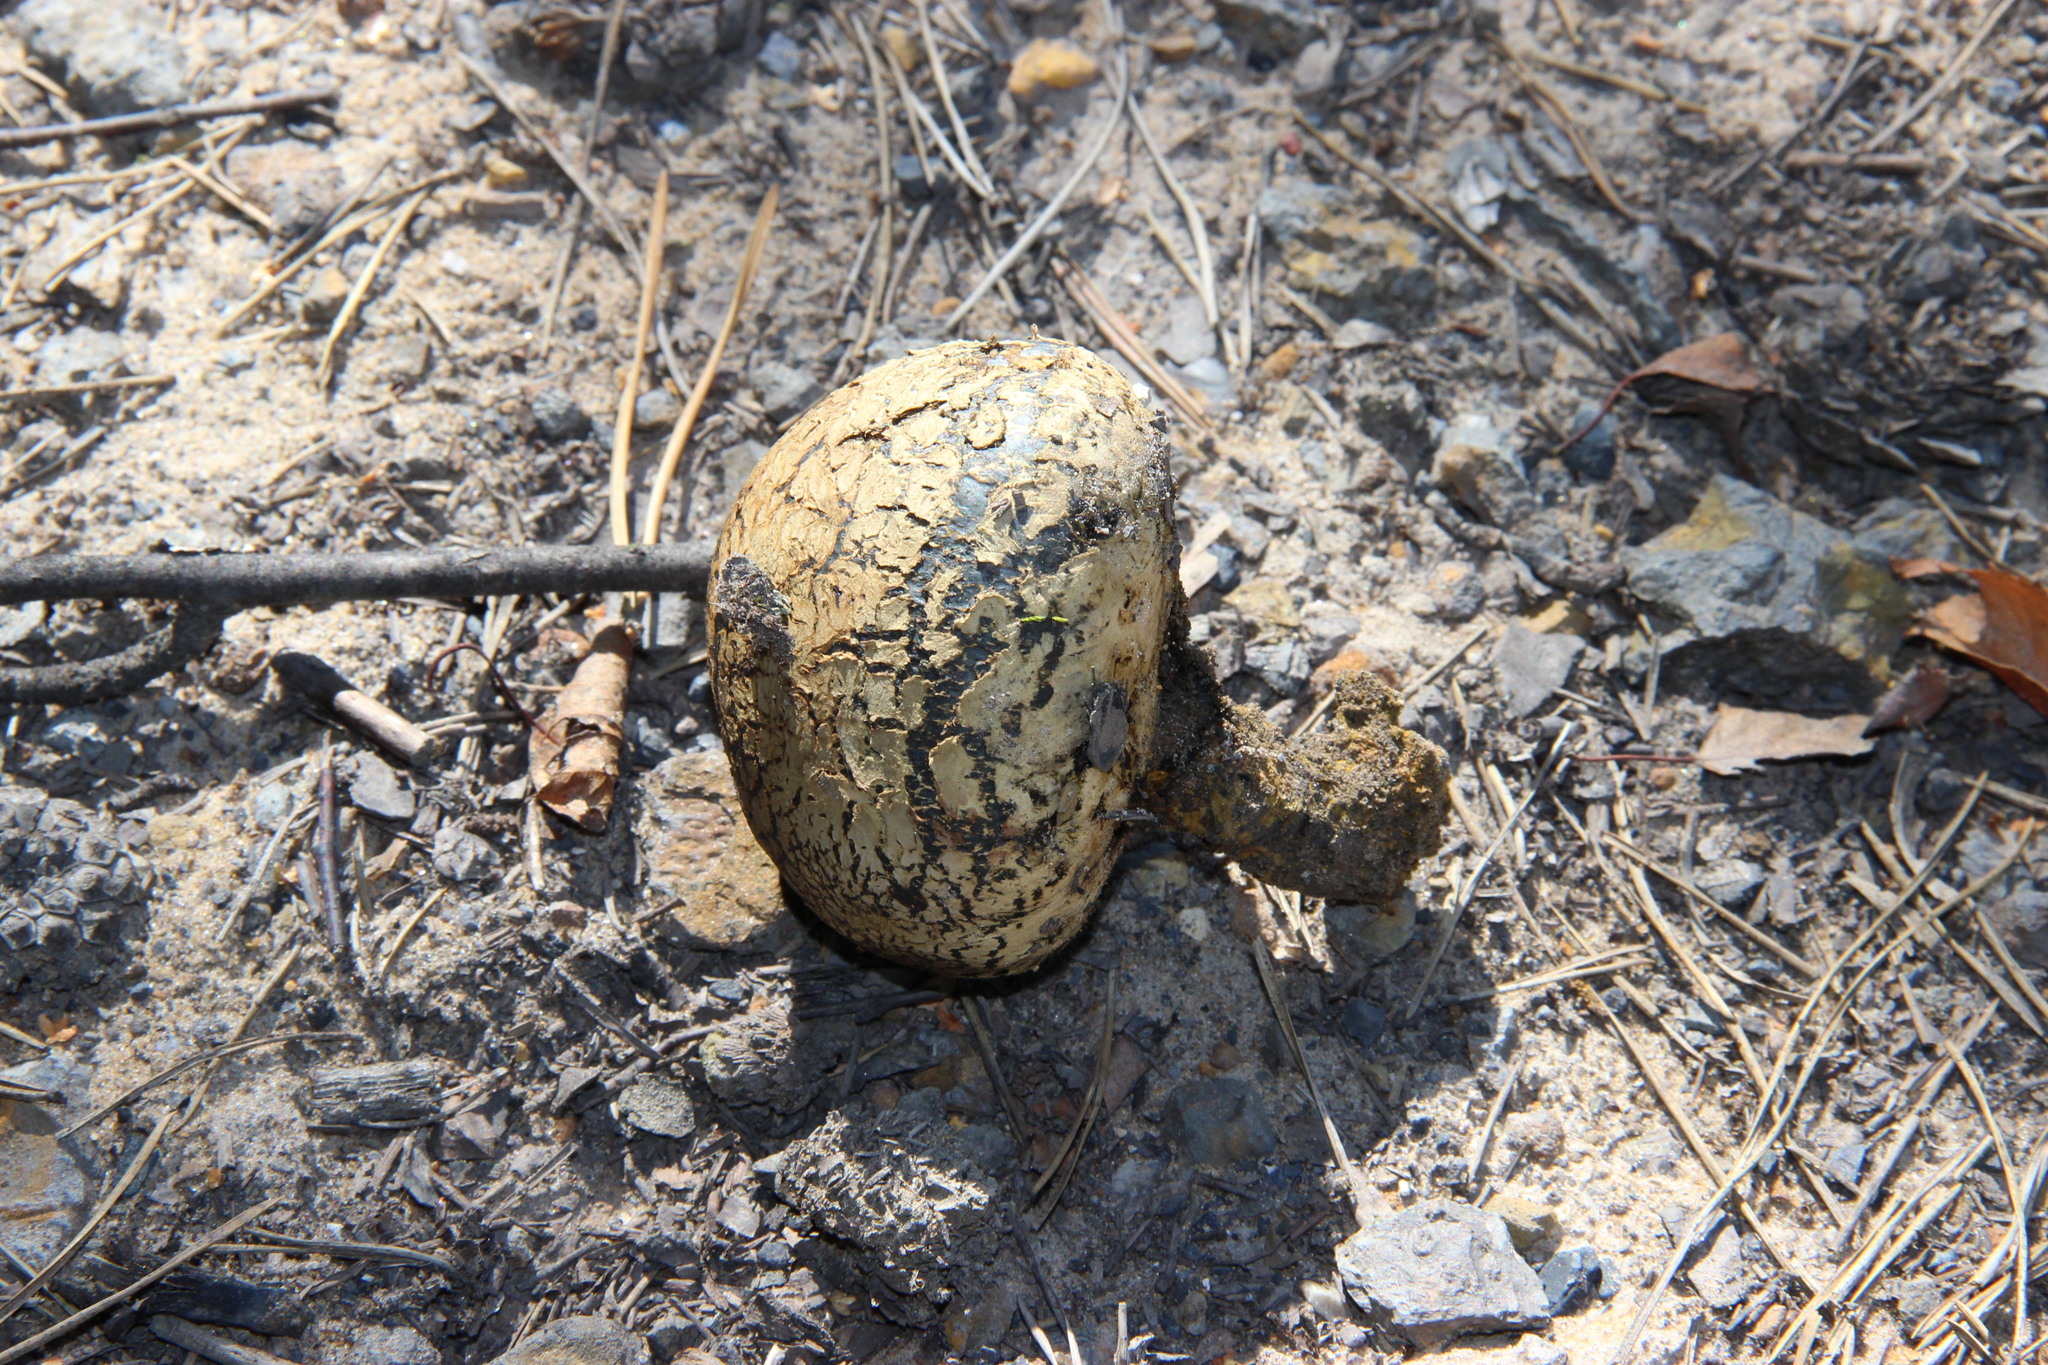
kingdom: Fungi
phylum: Basidiomycota
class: Agaricomycetes
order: Boletales
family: Sclerodermataceae
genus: Pisolithus
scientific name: Pisolithus arhizus
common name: Dyeball
